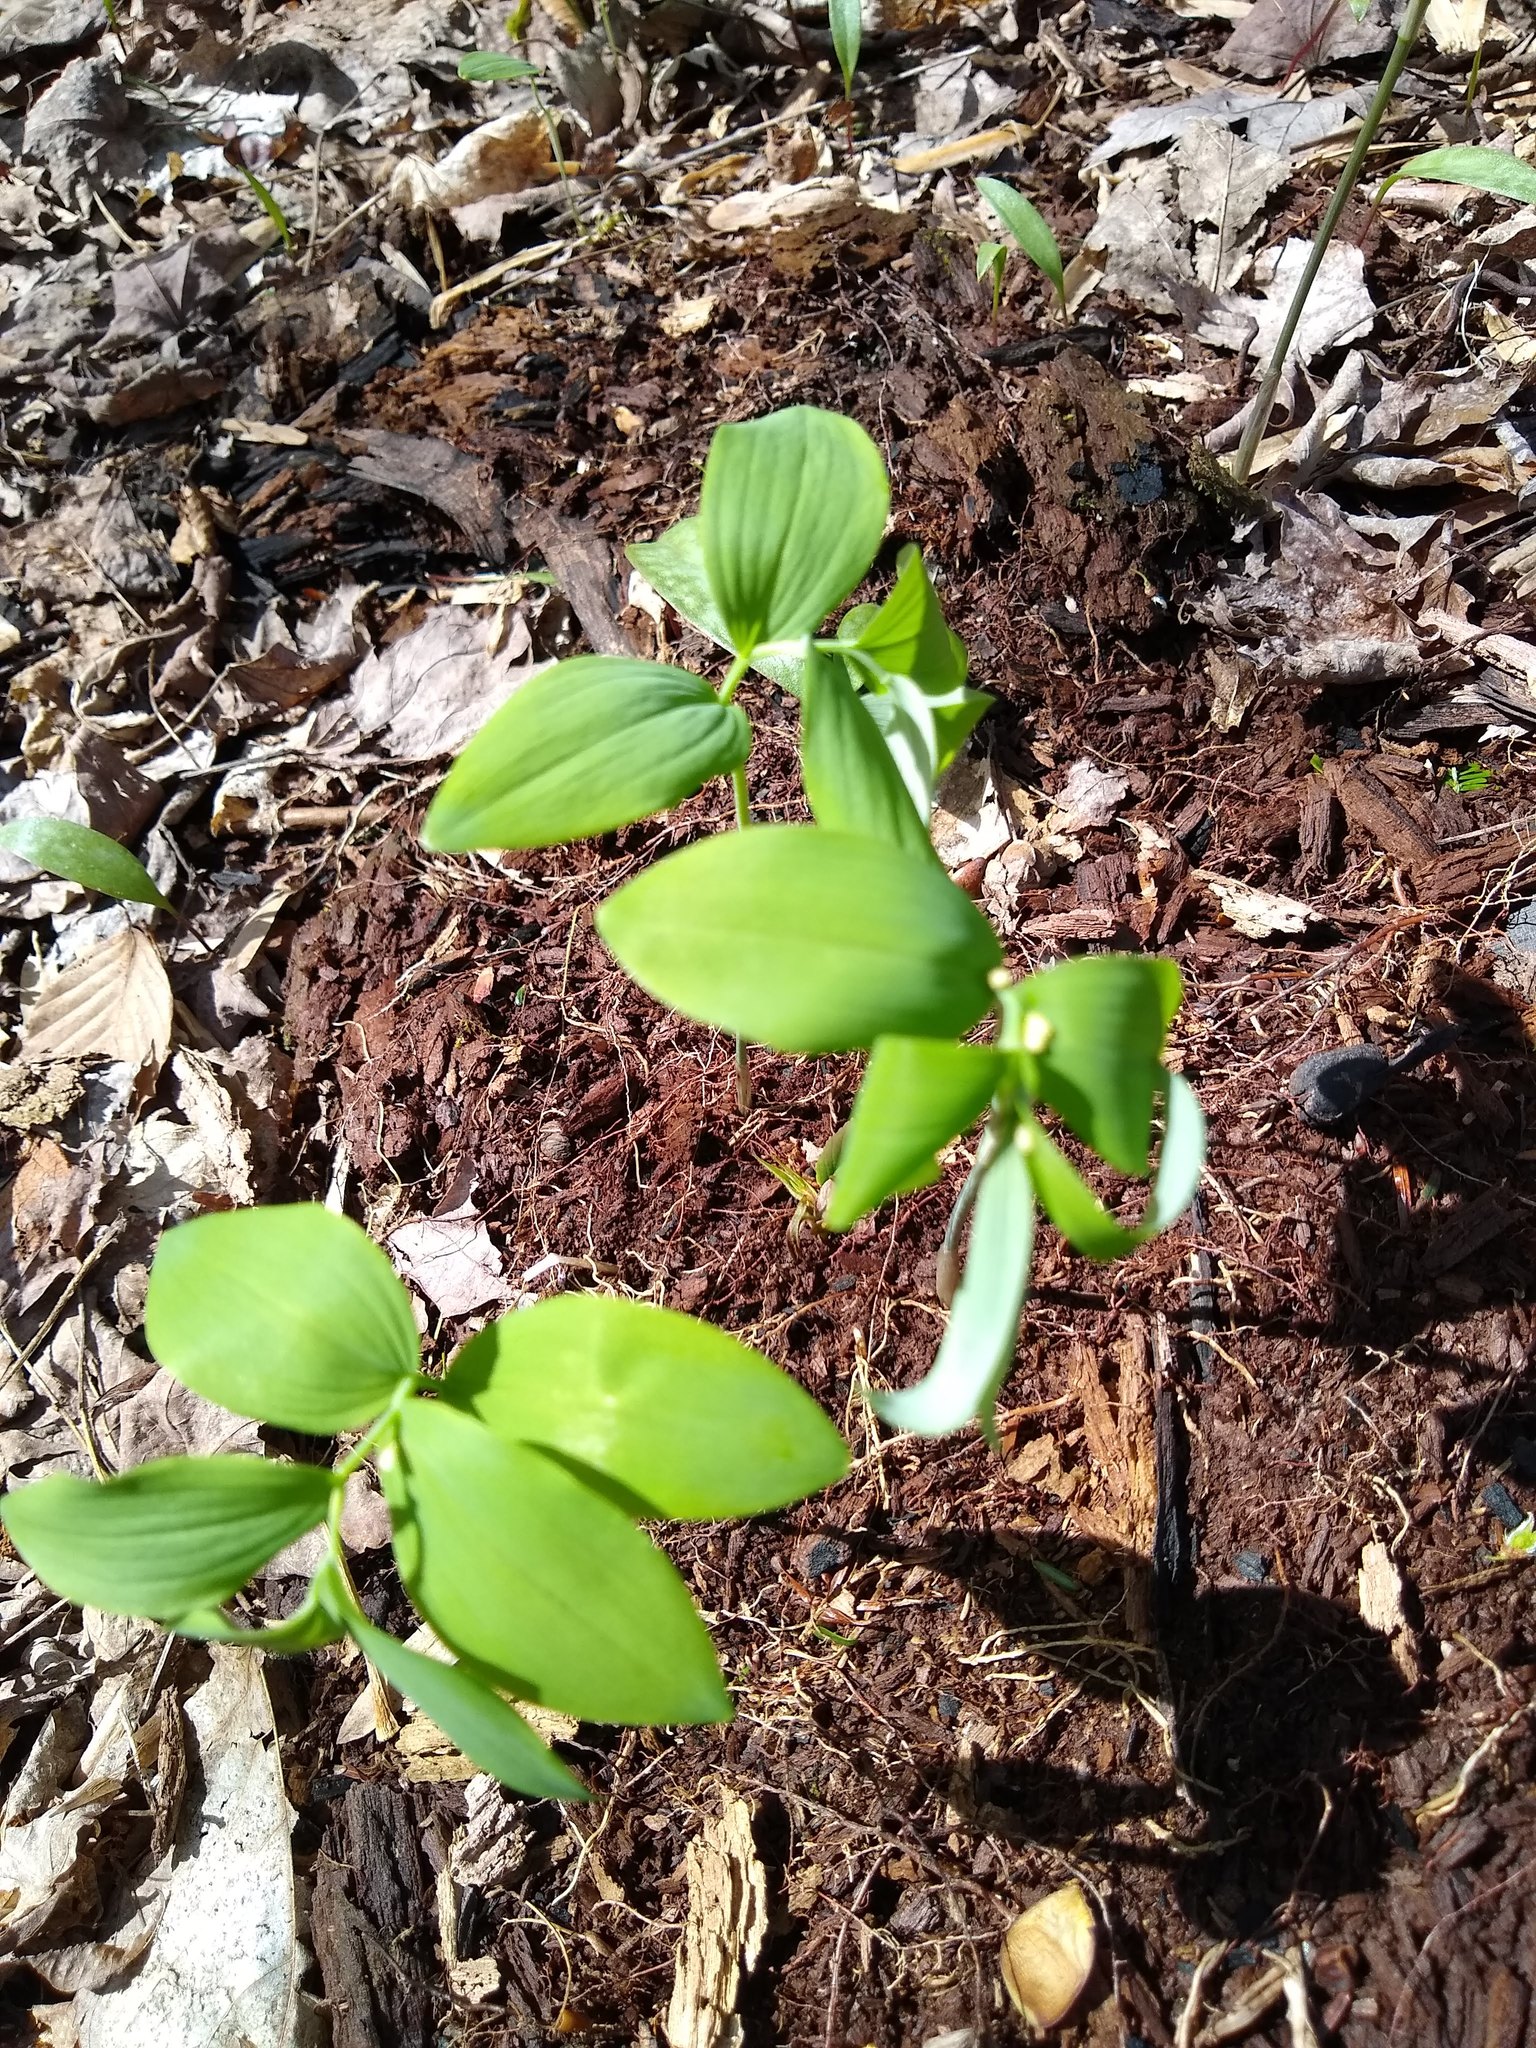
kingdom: Plantae
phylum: Tracheophyta
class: Liliopsida
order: Asparagales
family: Asparagaceae
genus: Polygonatum
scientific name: Polygonatum
